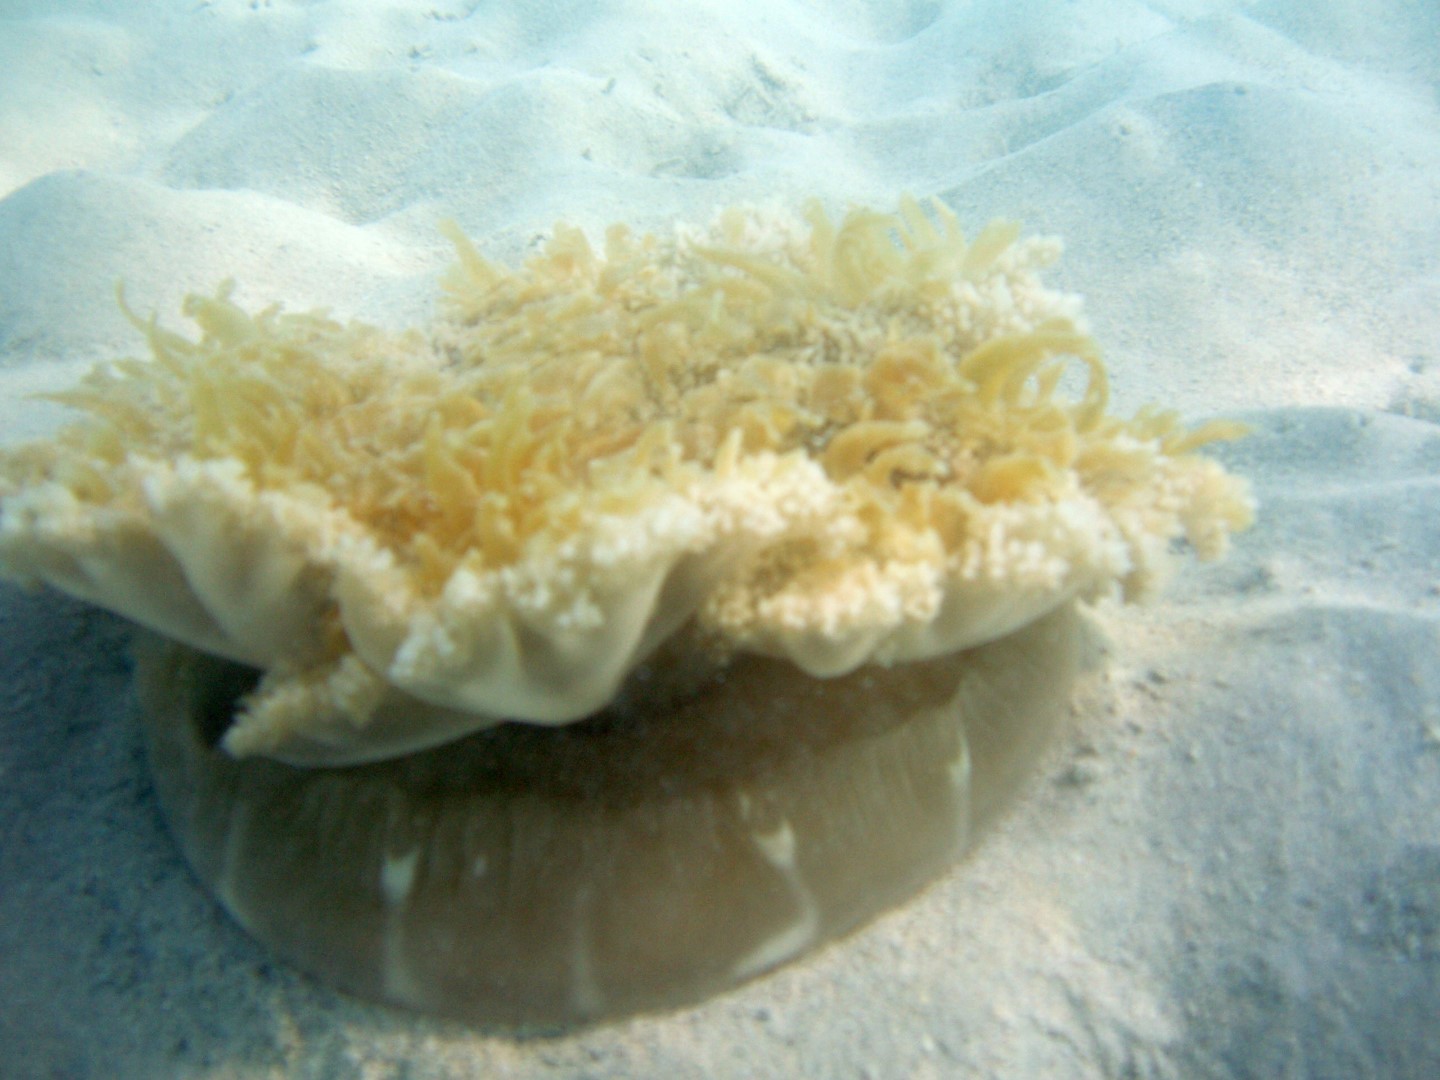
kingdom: Animalia
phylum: Cnidaria
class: Scyphozoa
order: Rhizostomeae
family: Cassiopeidae
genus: Cassiopea
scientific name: Cassiopea andromeda
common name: Upside-down jellyfish
